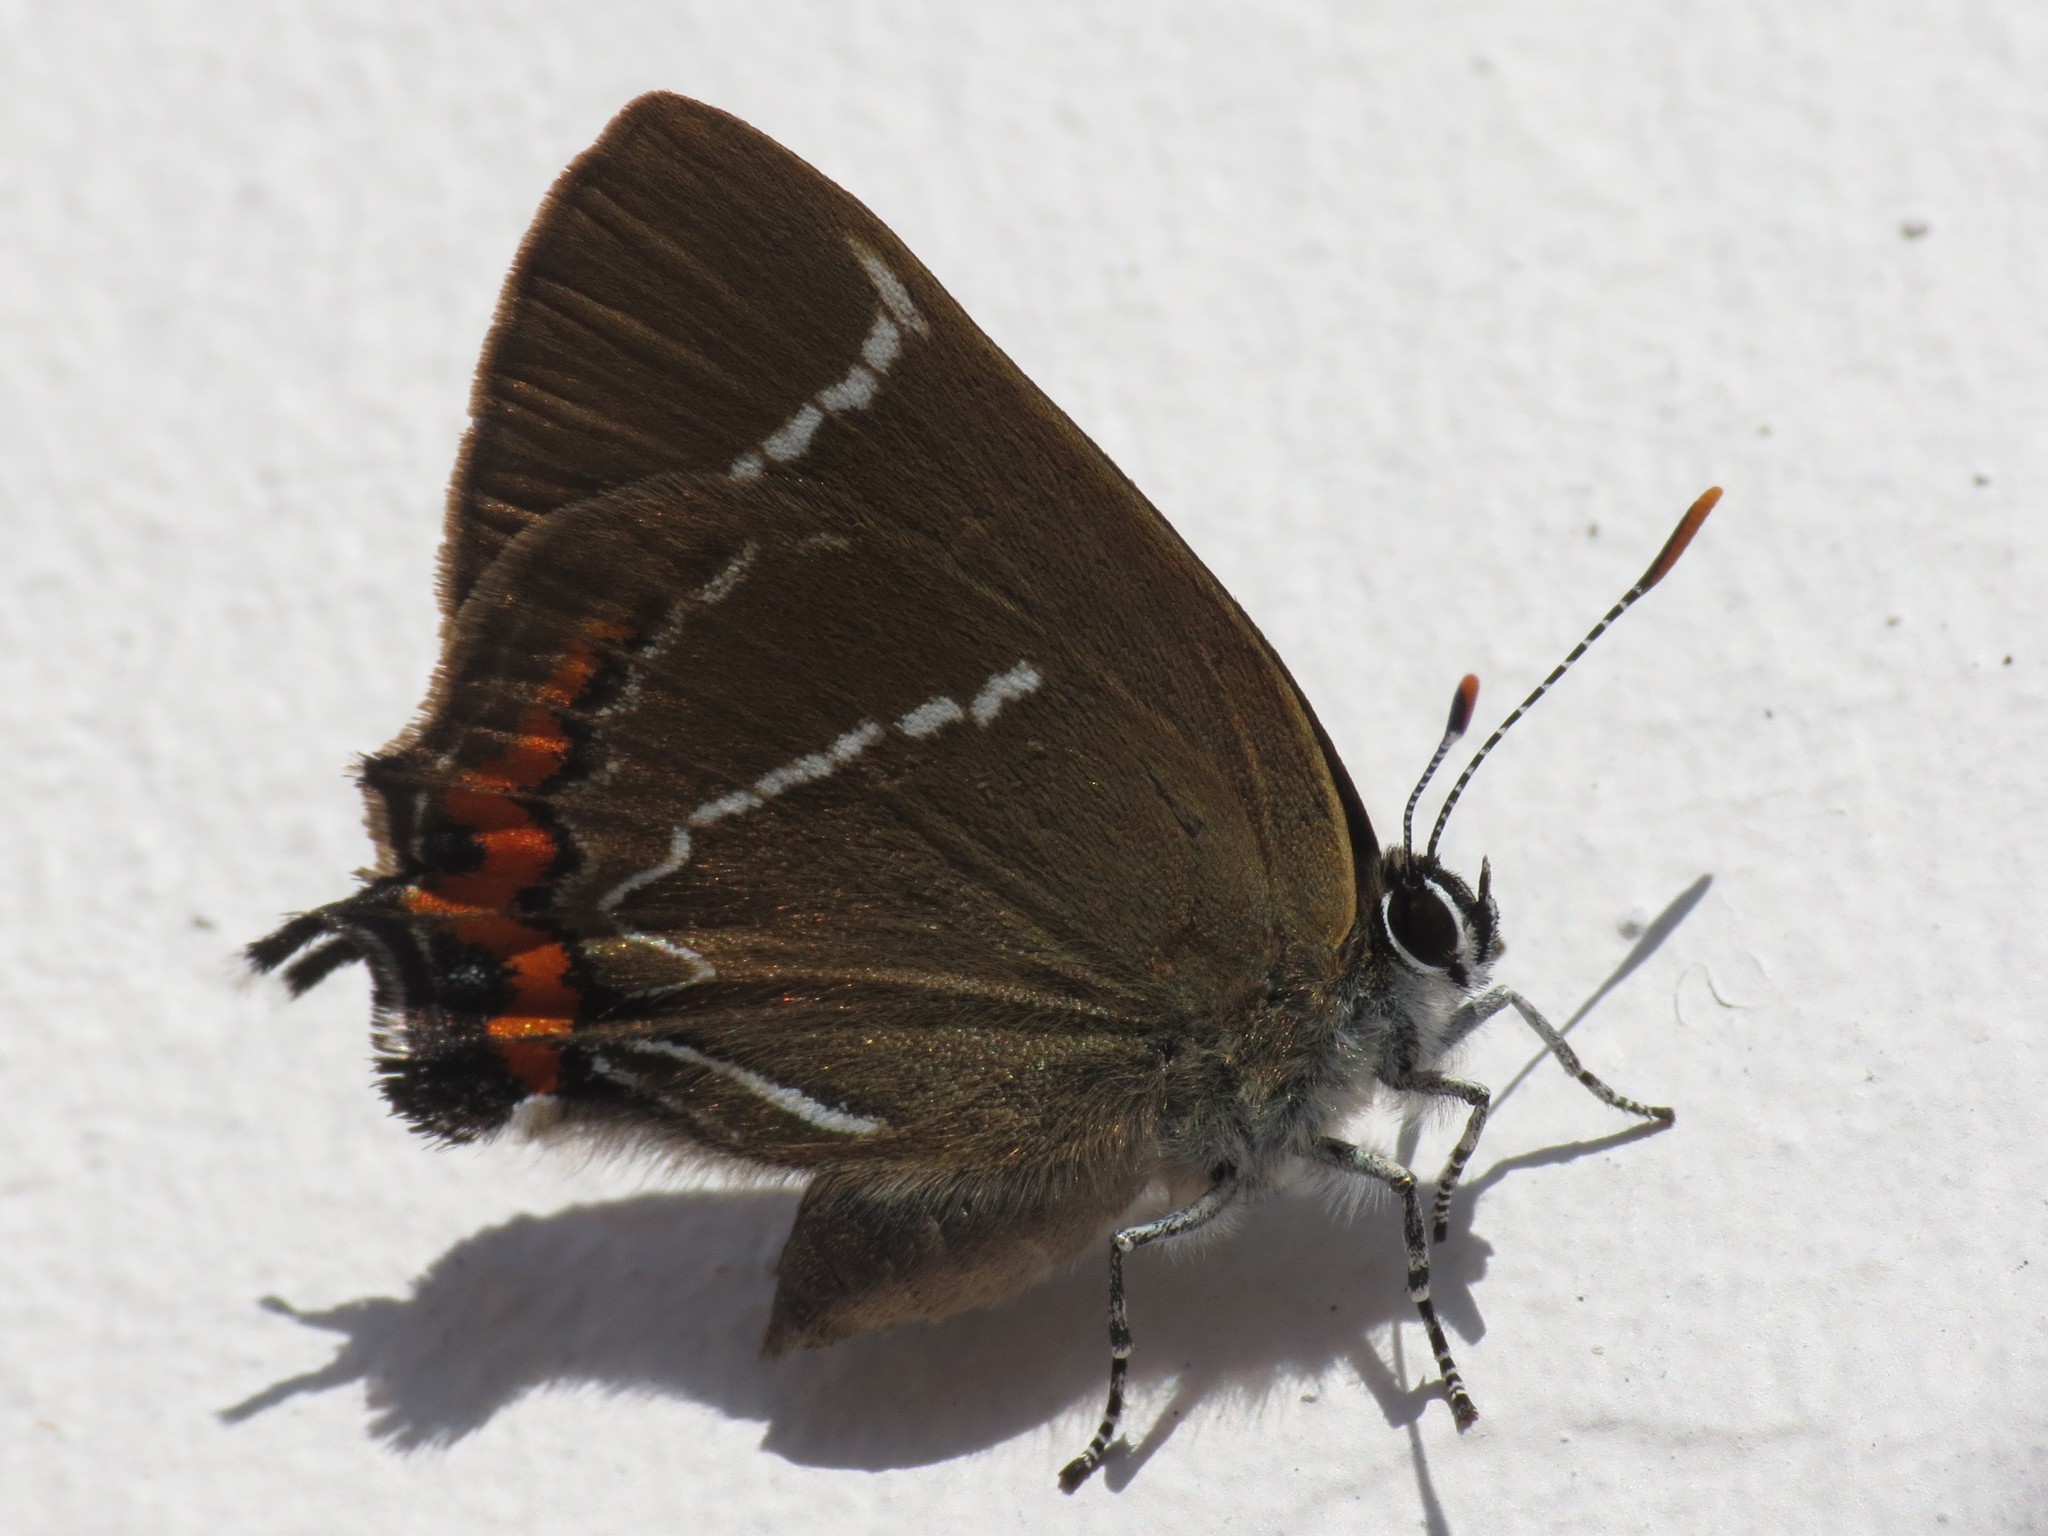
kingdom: Animalia
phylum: Arthropoda
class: Insecta
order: Lepidoptera
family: Lycaenidae
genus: Satyrium
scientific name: Satyrium w-album
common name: White-letter hairstreak
